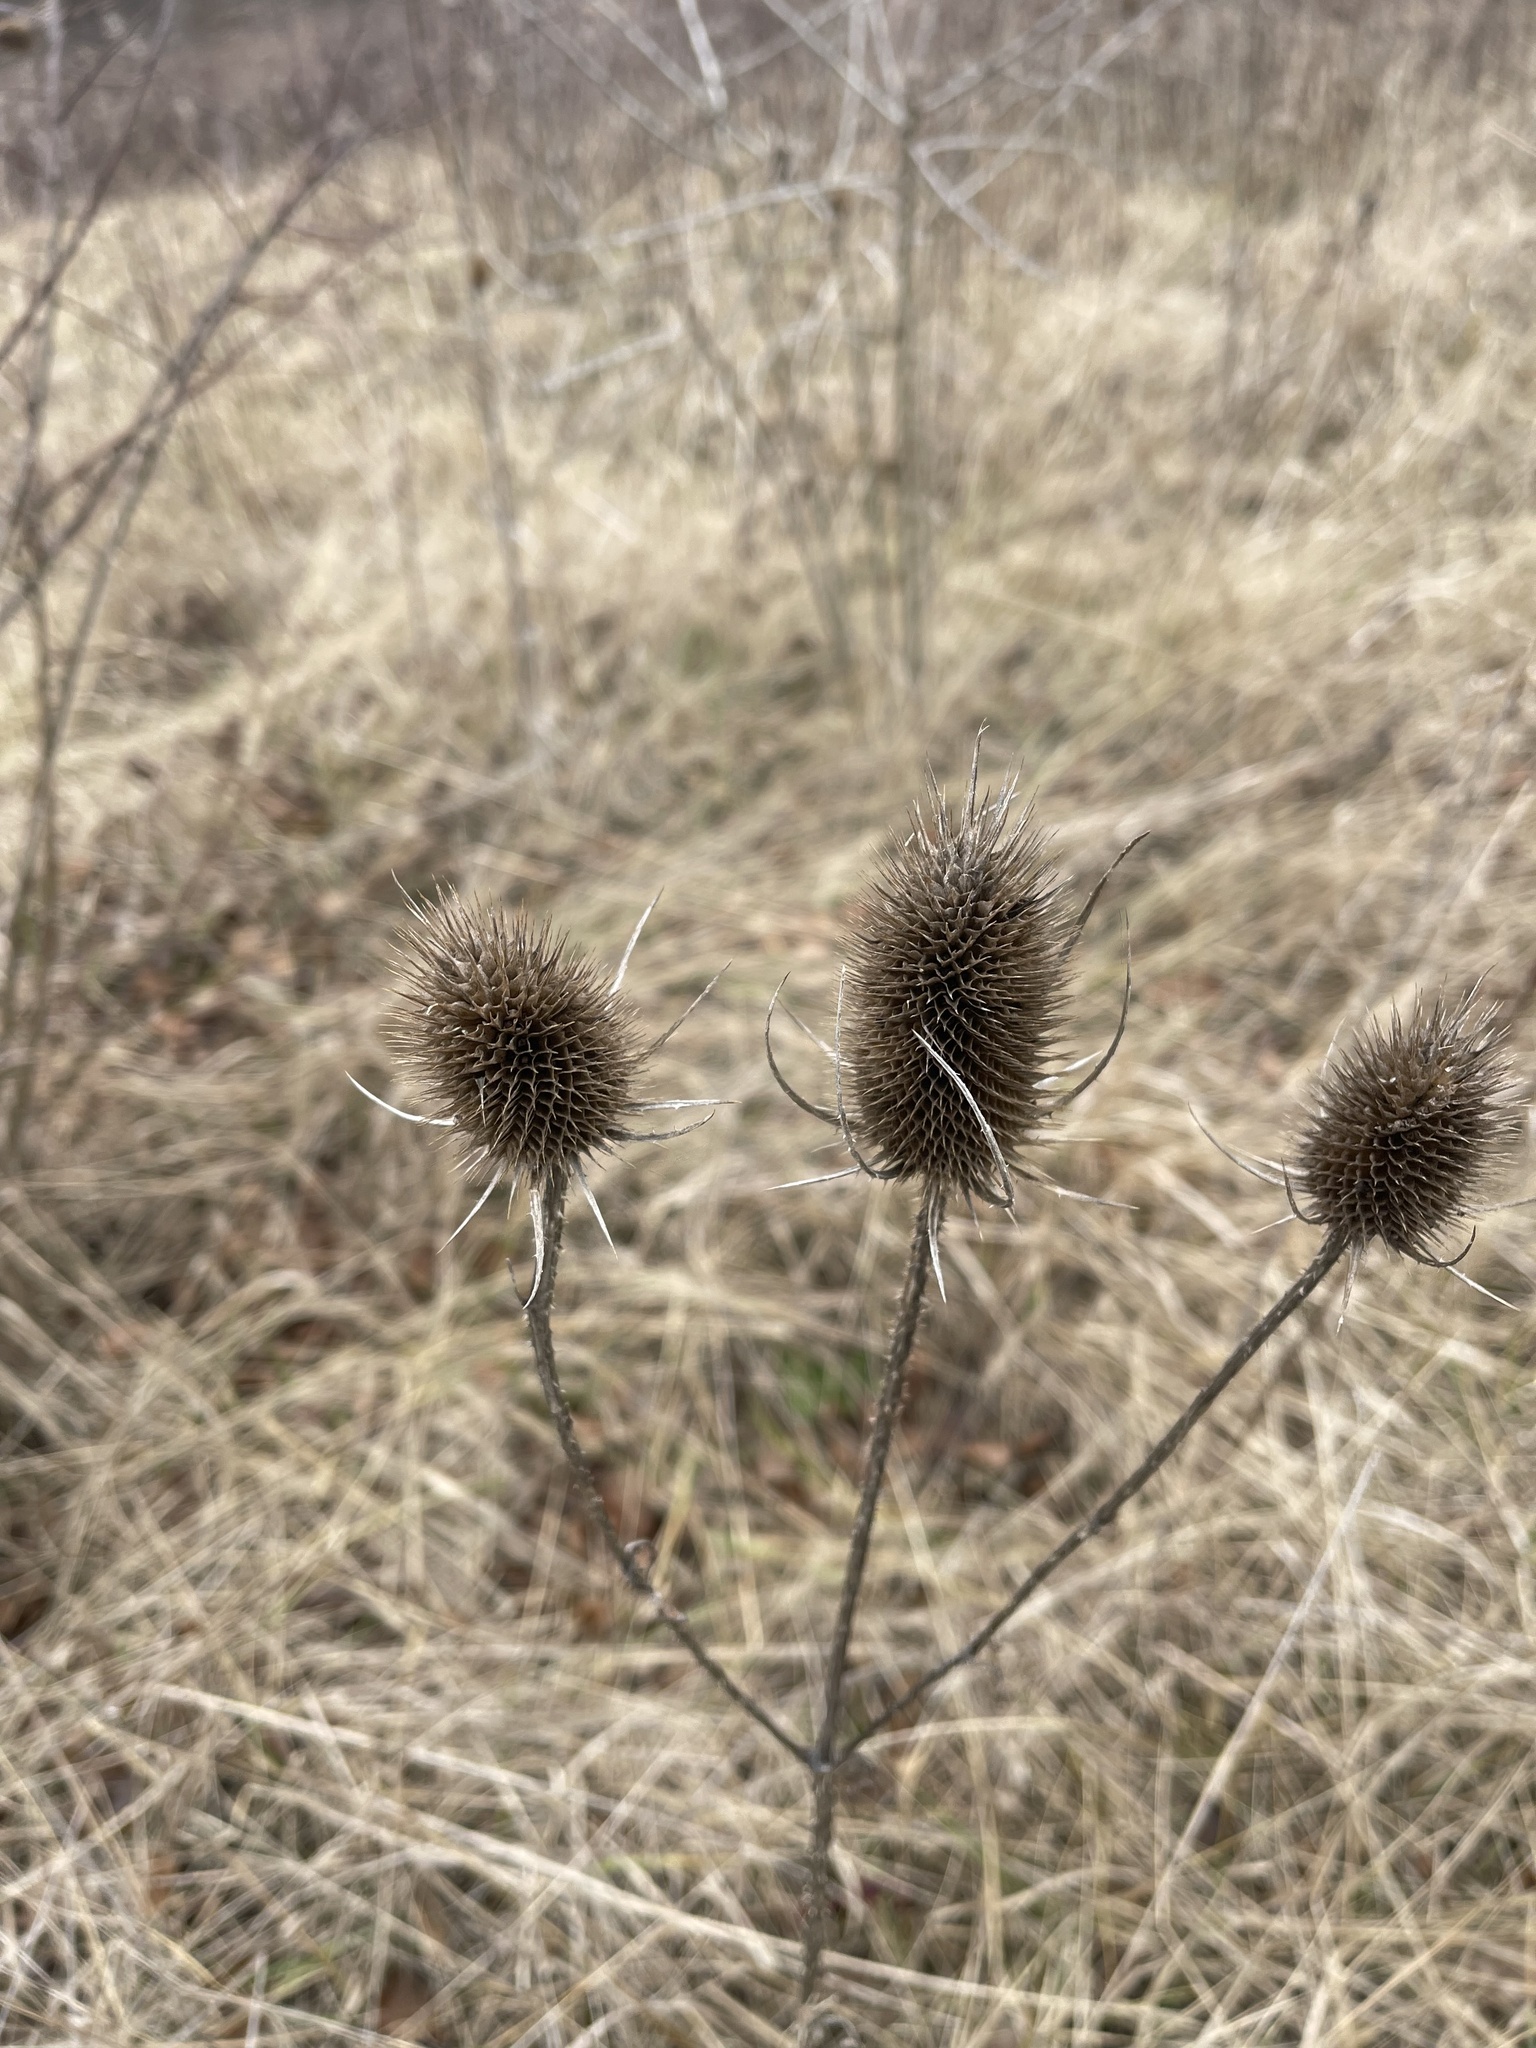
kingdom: Plantae
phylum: Tracheophyta
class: Magnoliopsida
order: Dipsacales
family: Caprifoliaceae
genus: Dipsacus
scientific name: Dipsacus fullonum
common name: Teasel
